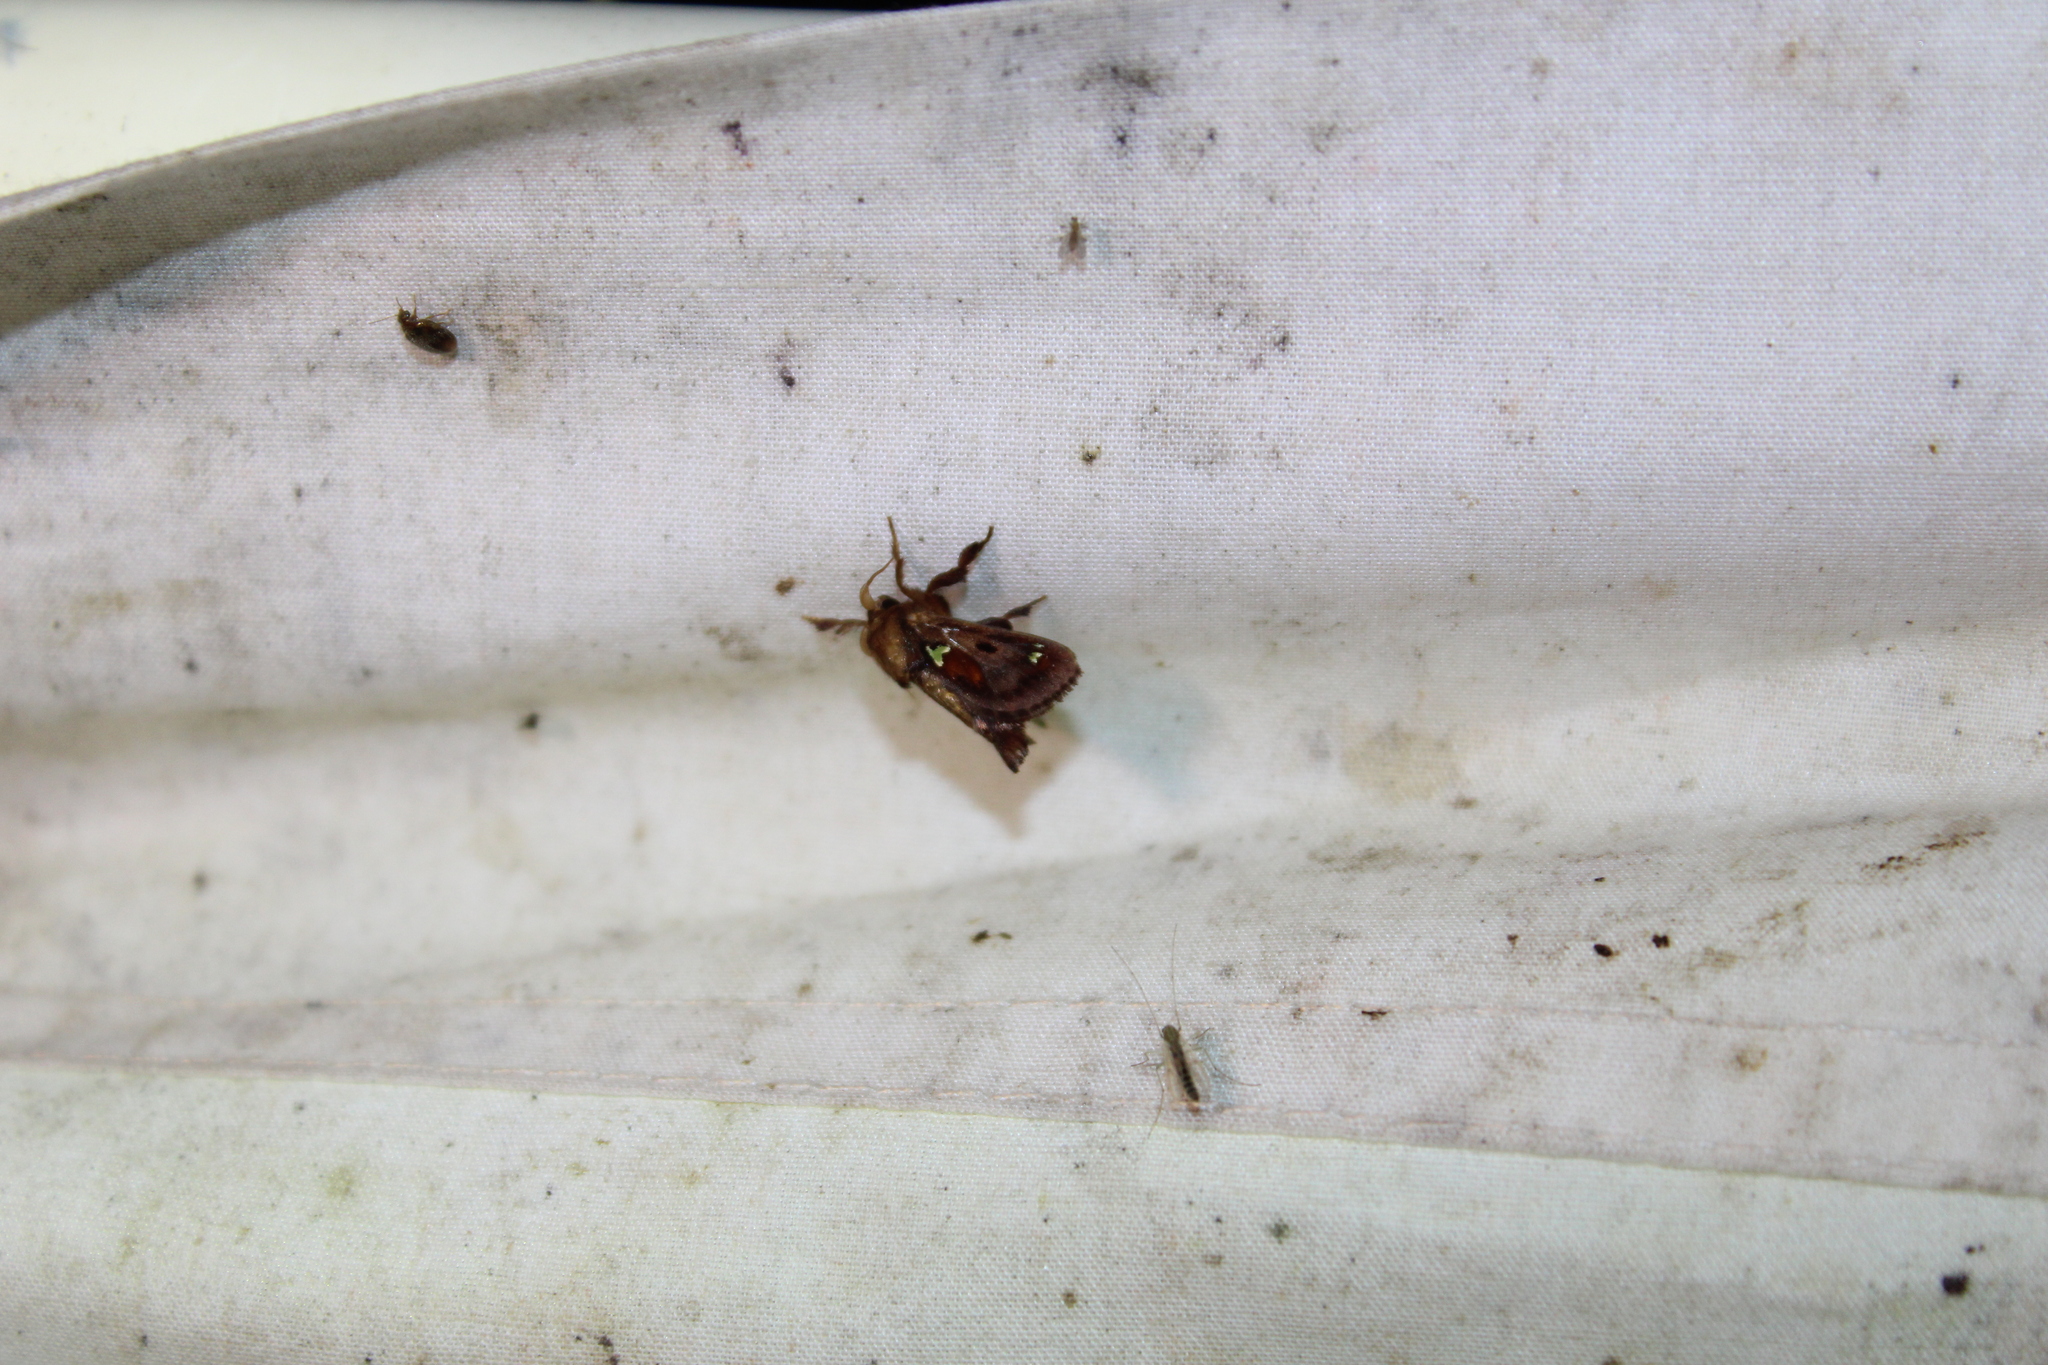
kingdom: Animalia
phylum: Arthropoda
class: Insecta
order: Lepidoptera
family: Limacodidae
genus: Euclea
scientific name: Euclea delphinii
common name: Spiny oak-slug moth
